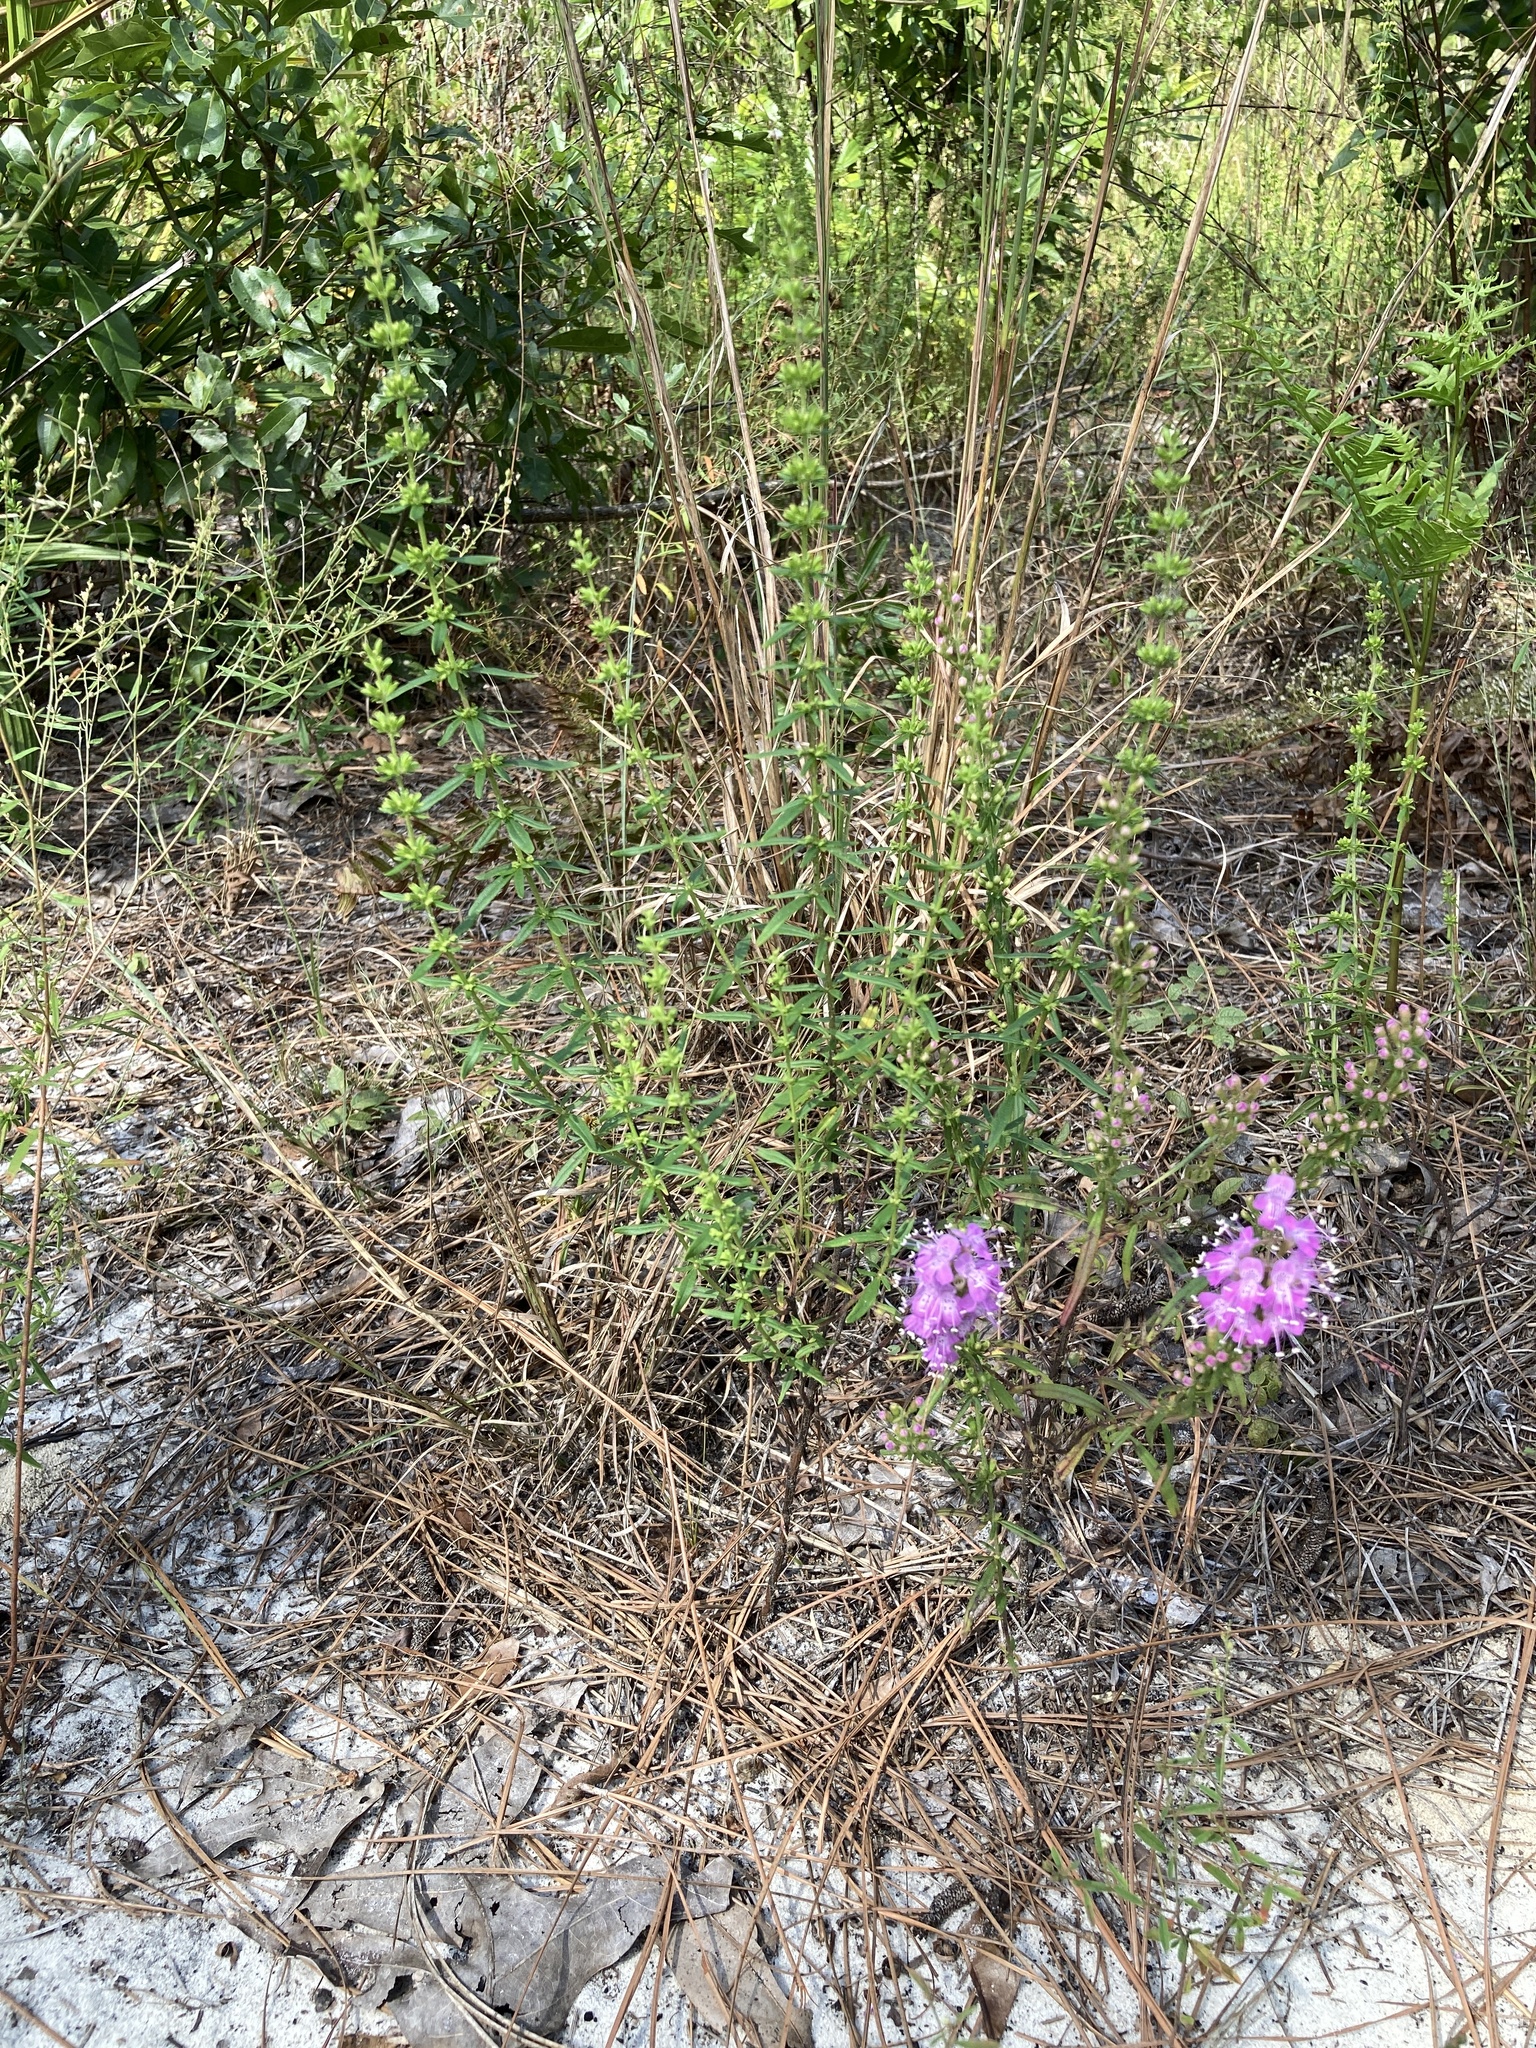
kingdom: Plantae
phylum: Tracheophyta
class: Magnoliopsida
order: Lamiales
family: Lamiaceae
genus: Dicerandra
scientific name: Dicerandra densiflora
